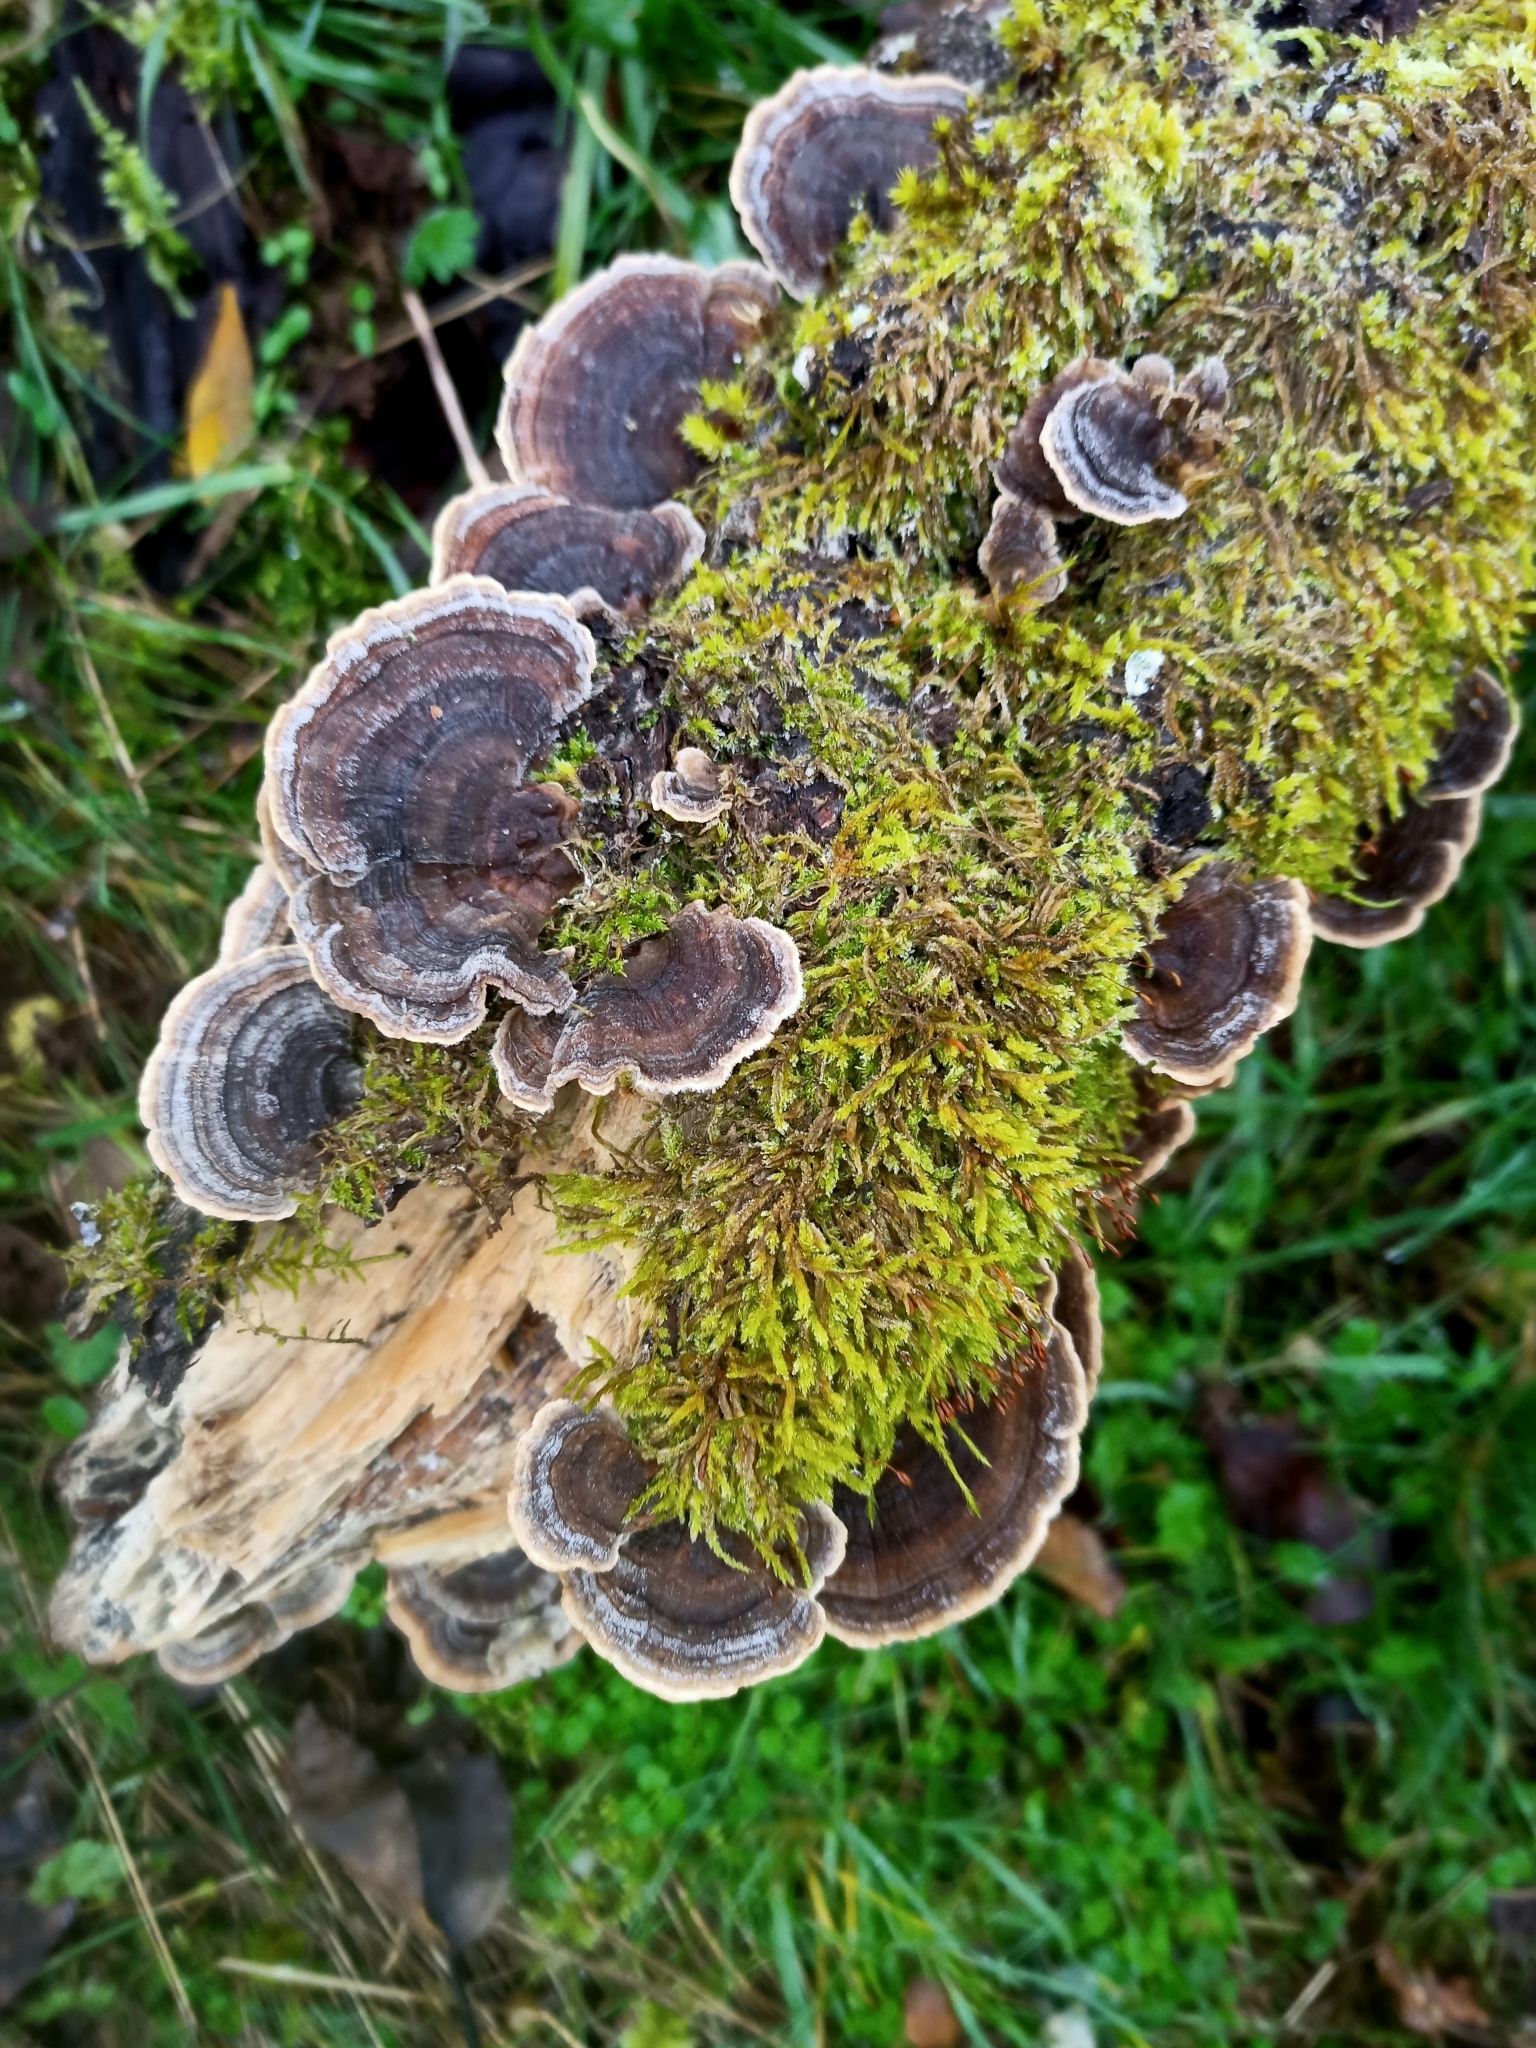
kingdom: Fungi
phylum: Basidiomycota
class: Agaricomycetes
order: Polyporales
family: Polyporaceae
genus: Trametes
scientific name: Trametes versicolor
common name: Turkeytail
